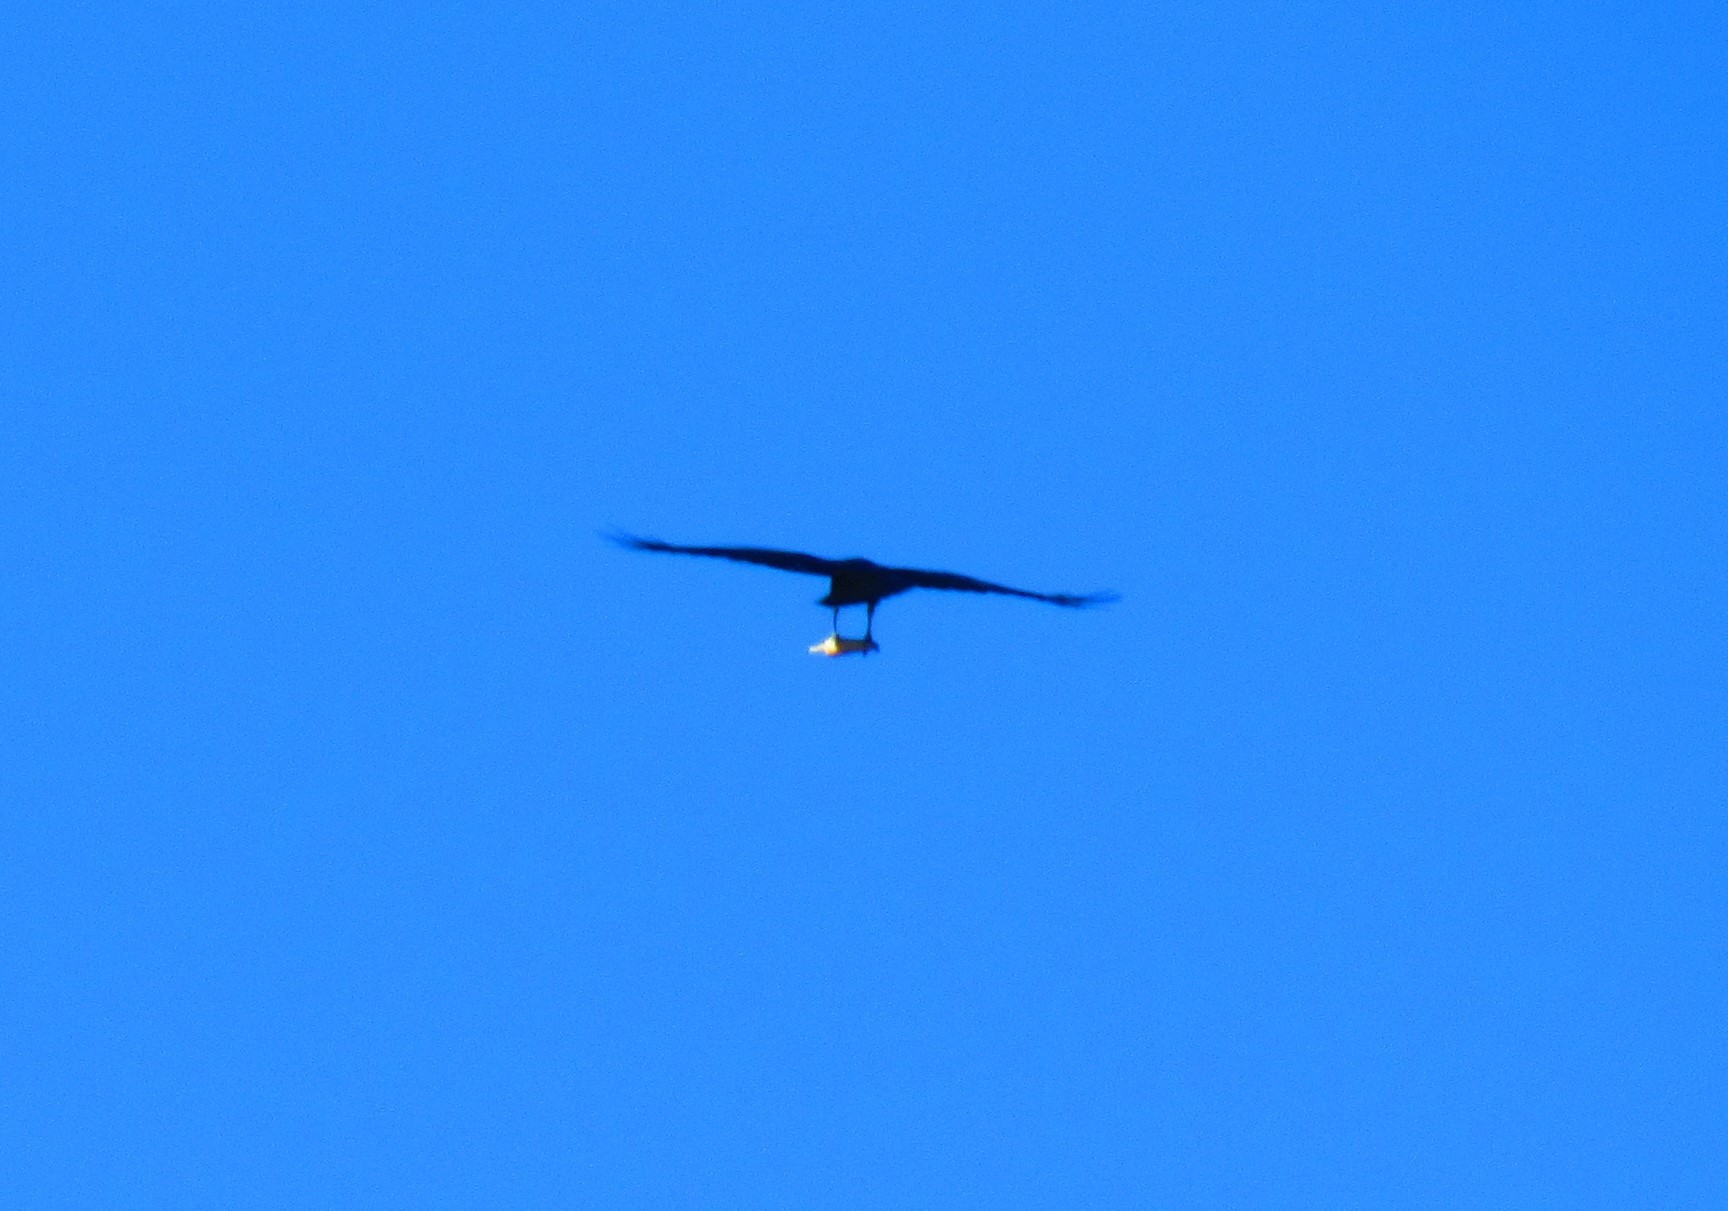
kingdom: Animalia
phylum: Chordata
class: Aves
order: Passeriformes
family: Corvidae
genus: Corvus
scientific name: Corvus corax
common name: Common raven
